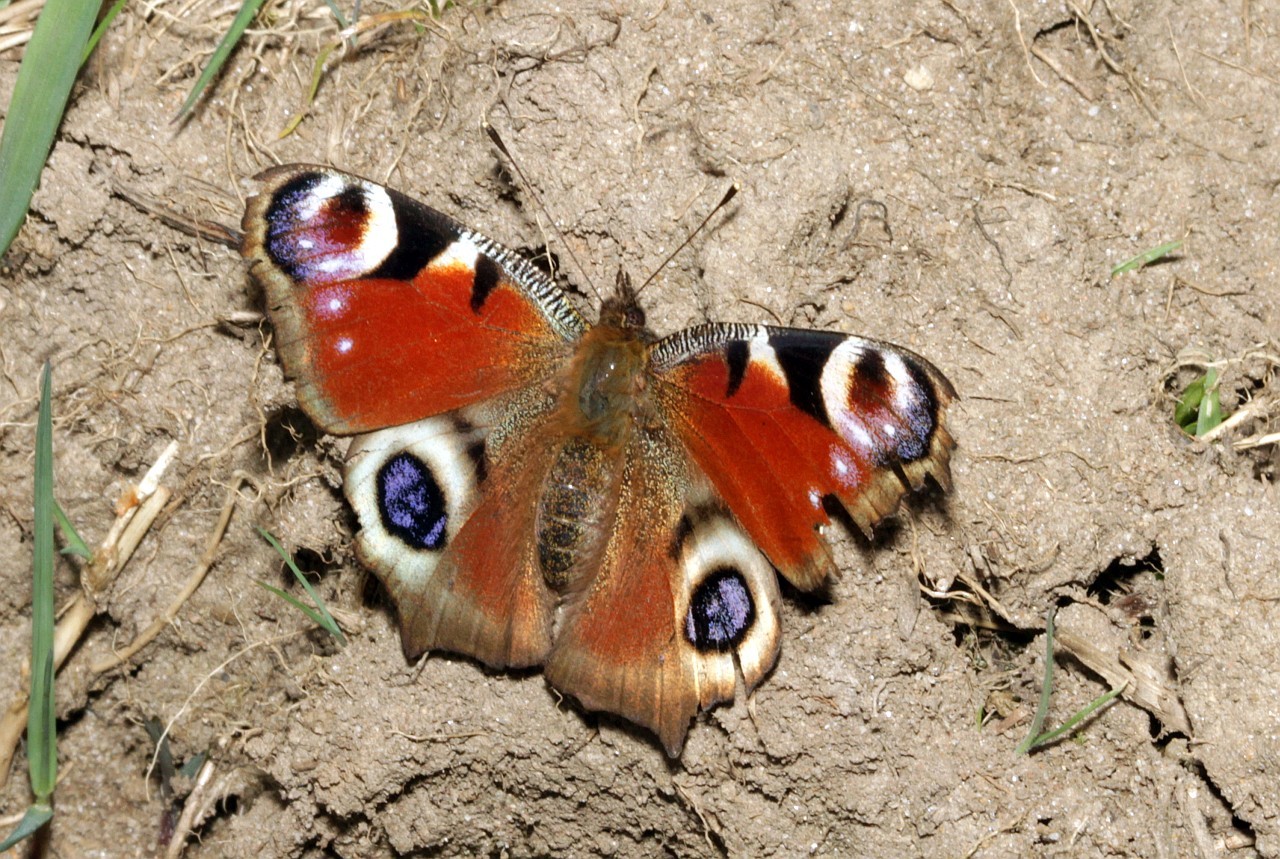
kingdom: Animalia
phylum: Arthropoda
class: Insecta
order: Lepidoptera
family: Nymphalidae
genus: Aglais
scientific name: Aglais io
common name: Peacock
